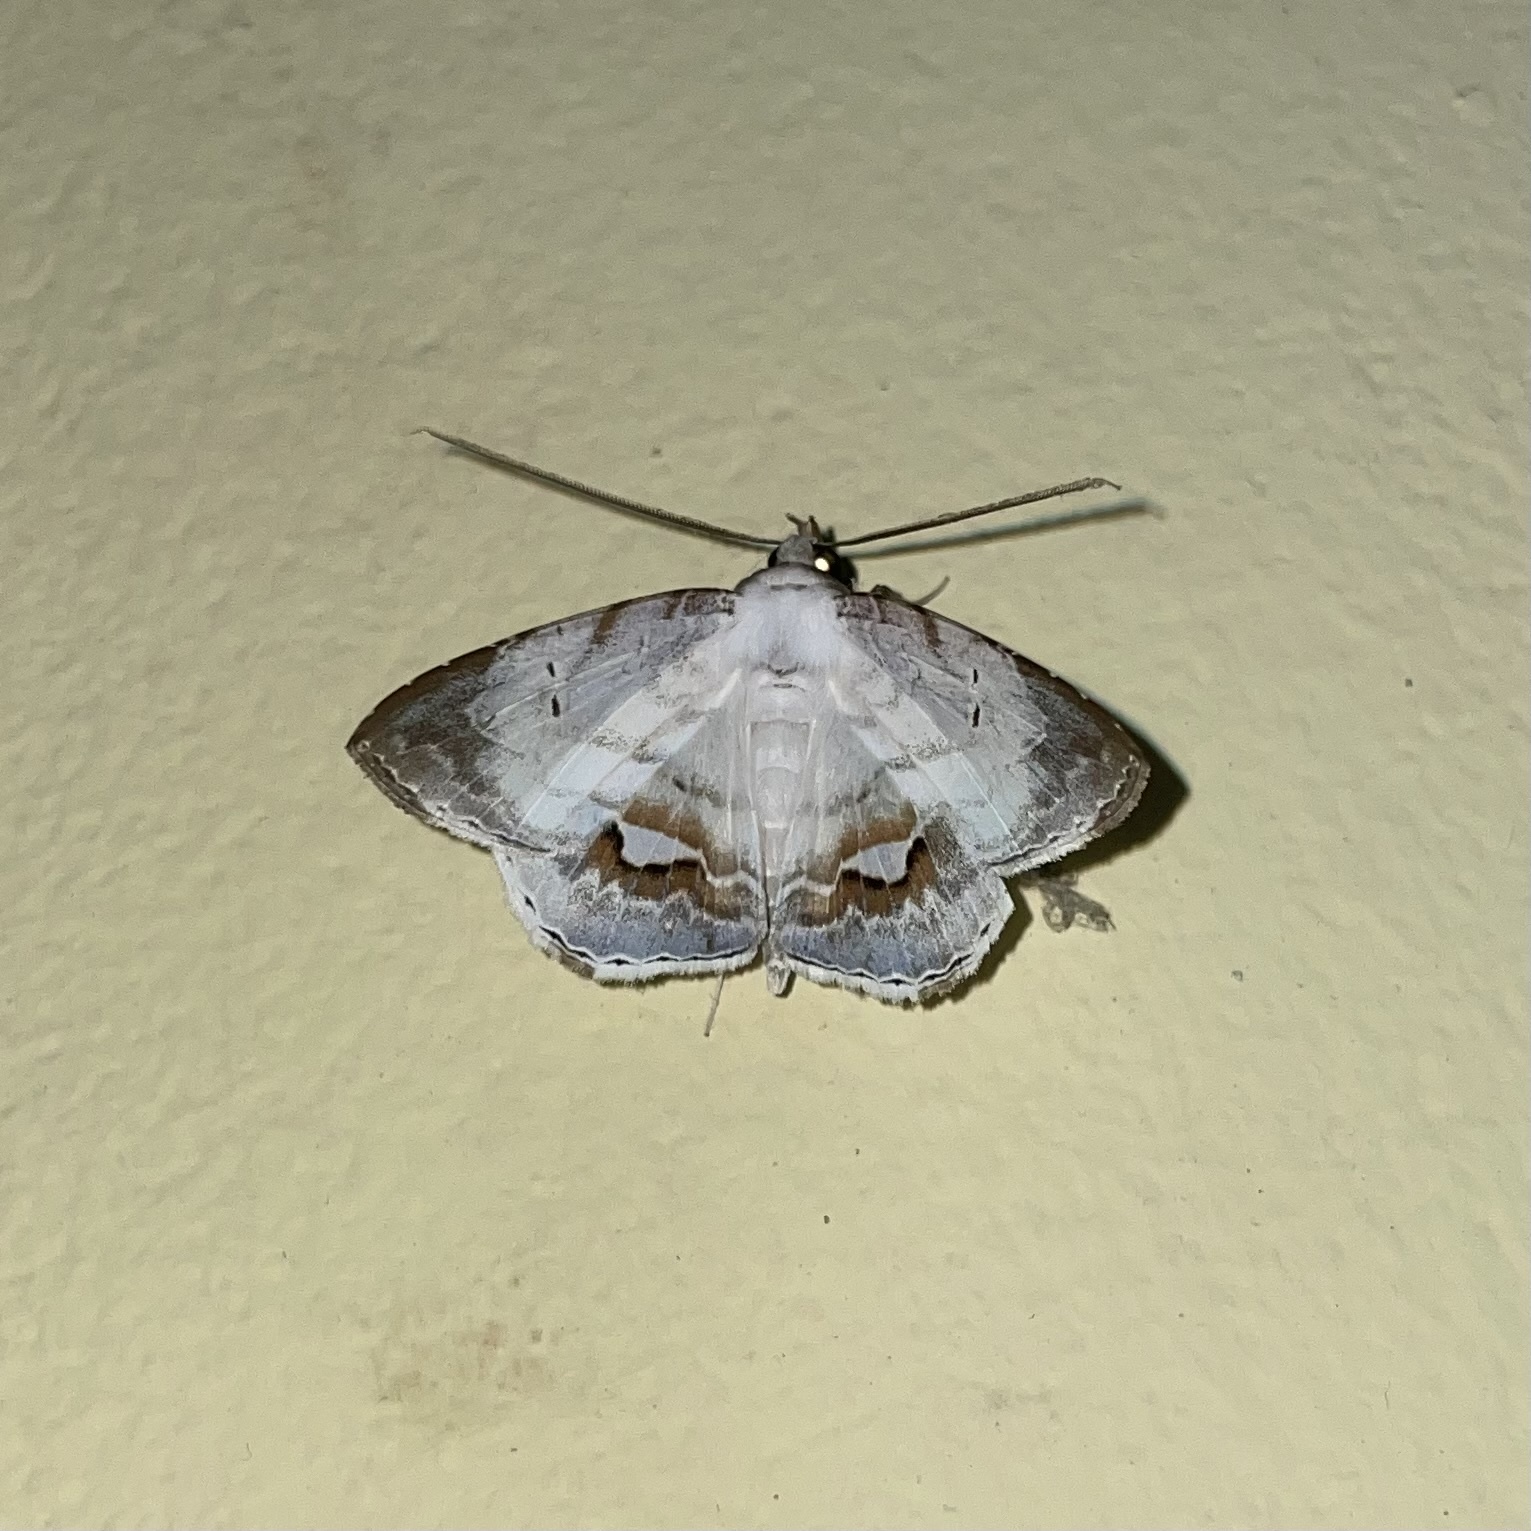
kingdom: Animalia
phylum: Arthropoda
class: Insecta
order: Lepidoptera
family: Erebidae
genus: Macrodes
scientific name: Macrodes columbalis
